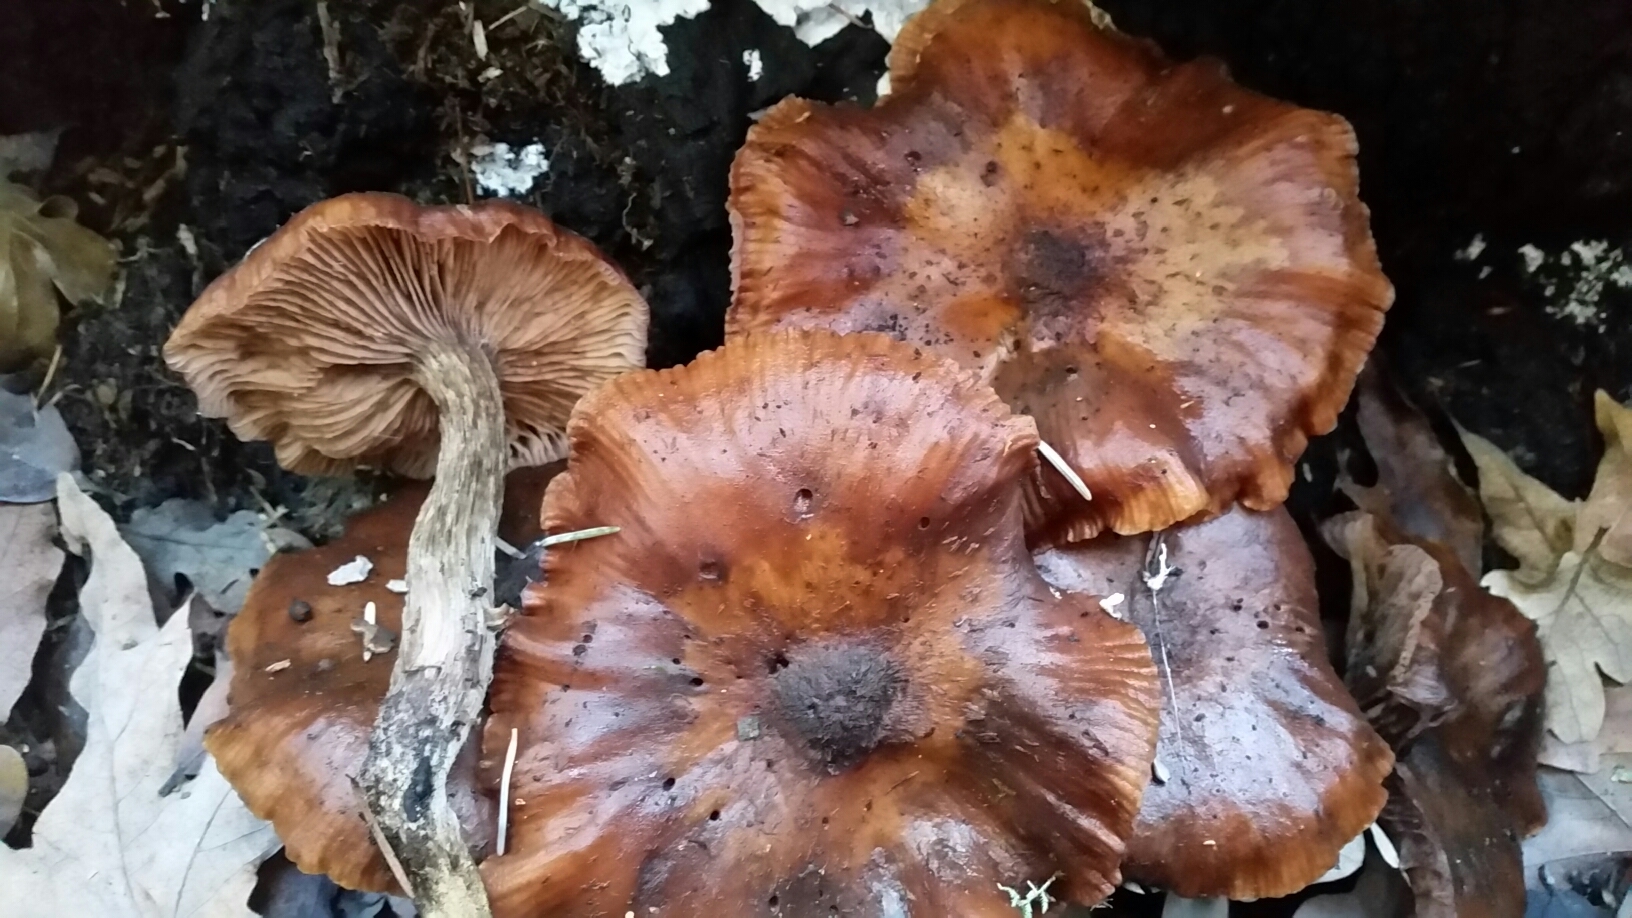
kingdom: Fungi
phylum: Basidiomycota
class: Agaricomycetes
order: Agaricales
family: Physalacriaceae
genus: Armillaria
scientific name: Armillaria mellea
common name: Honey fungus
